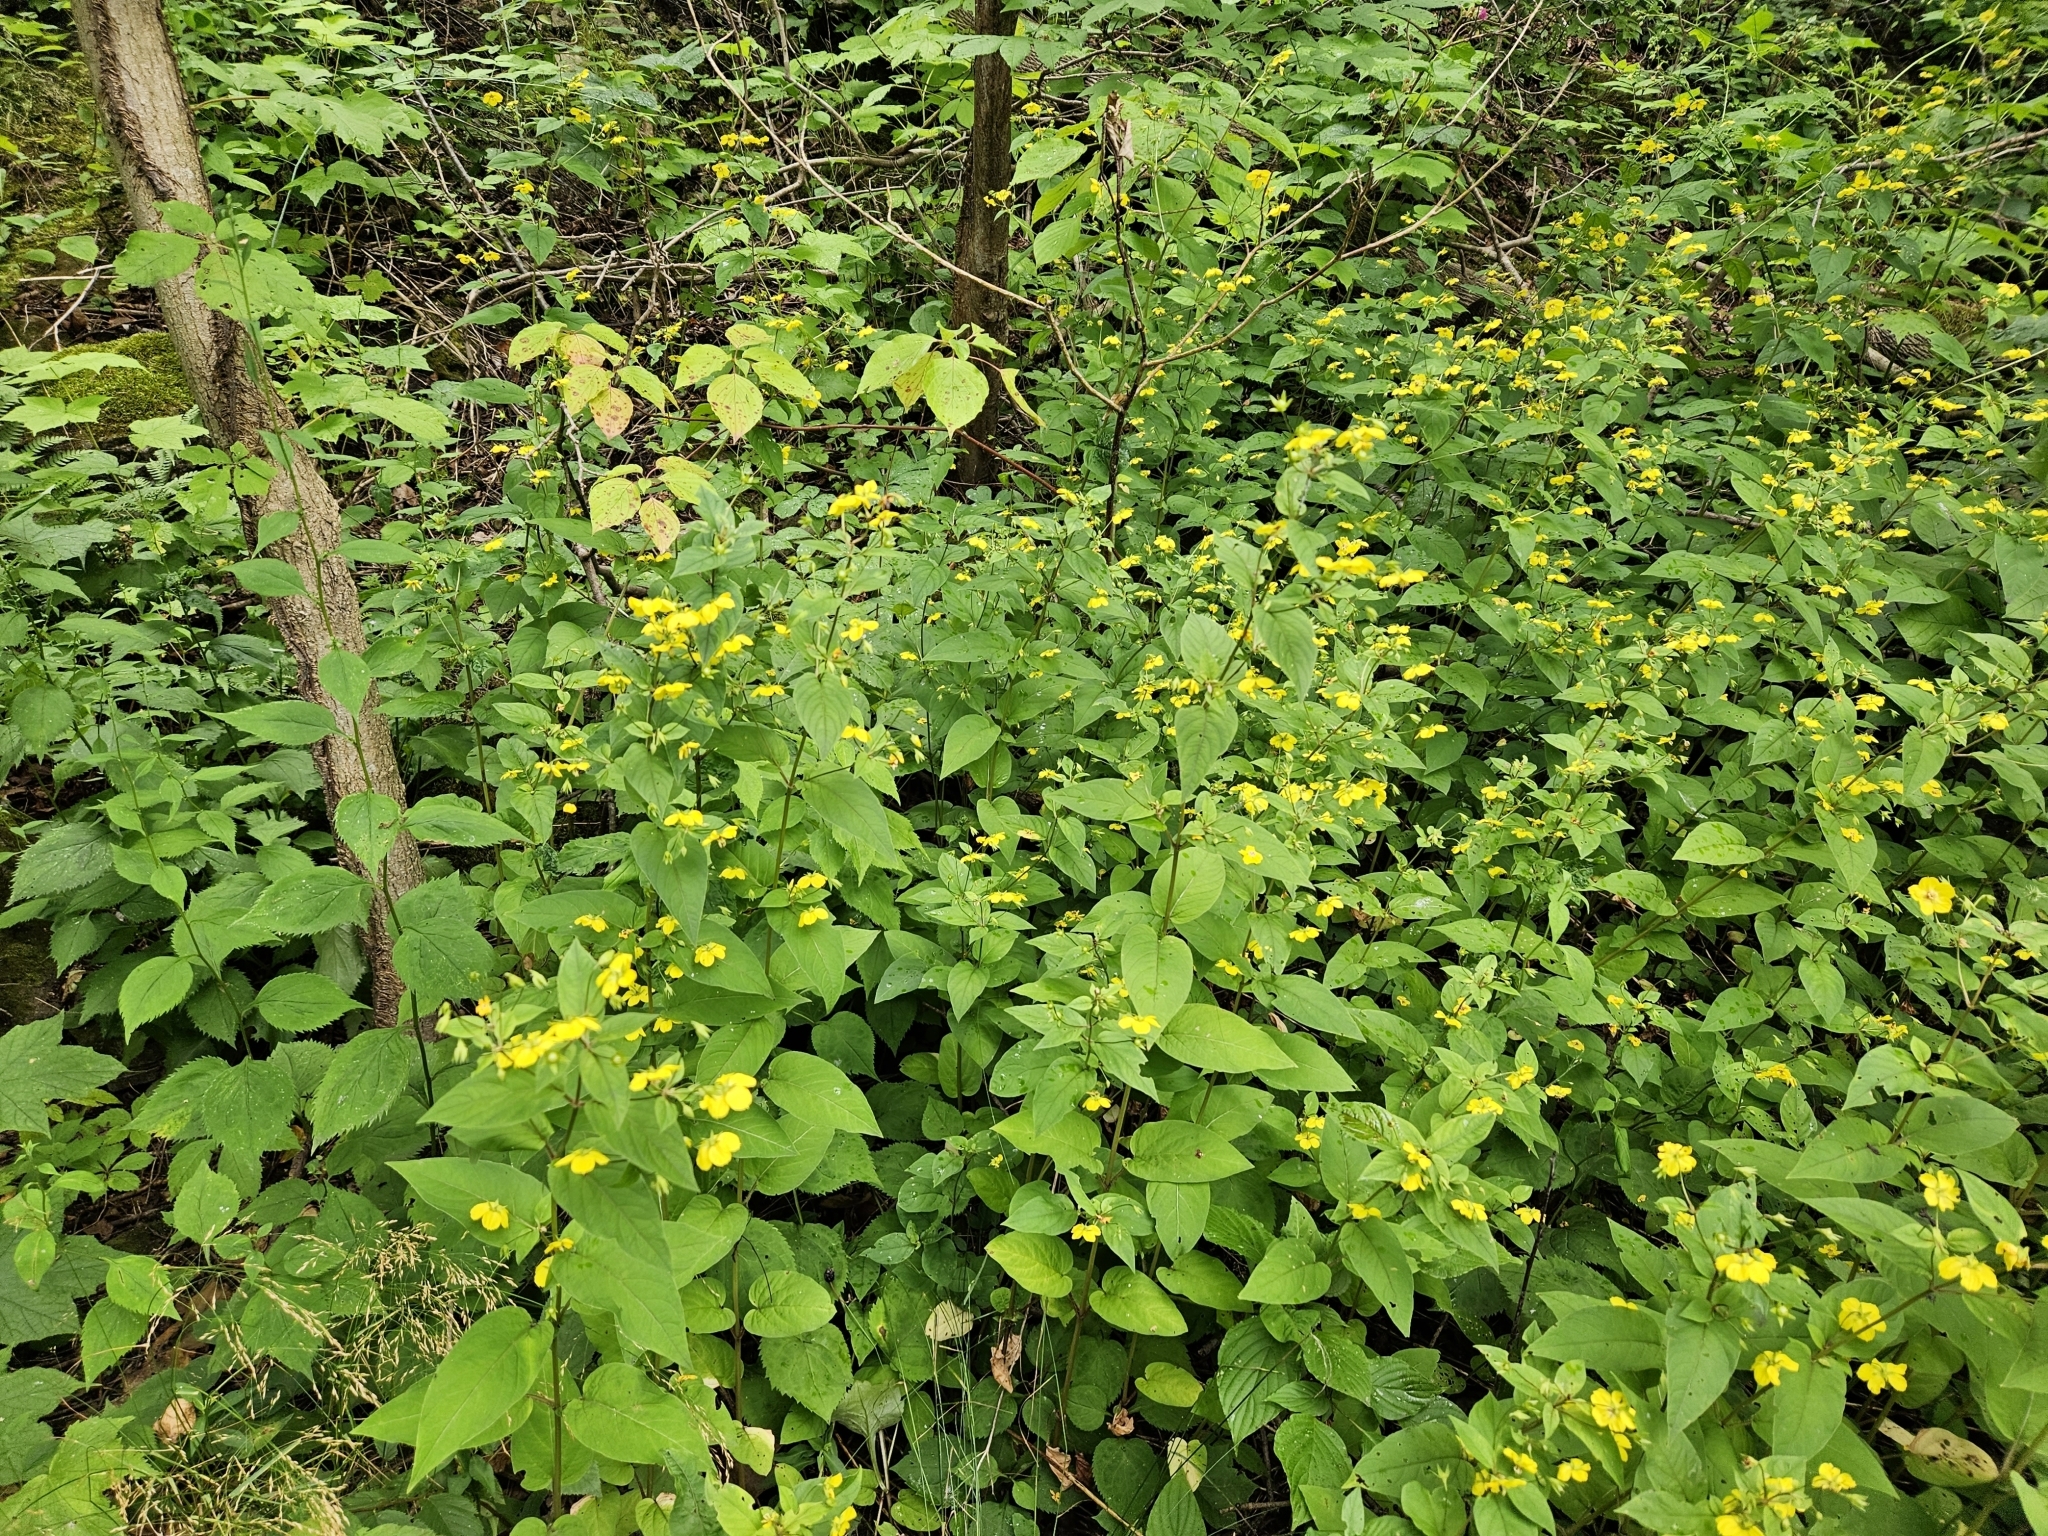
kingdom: Plantae
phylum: Tracheophyta
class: Magnoliopsida
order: Ericales
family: Primulaceae
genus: Lysimachia
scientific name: Lysimachia ciliata
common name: Fringed loosestrife
